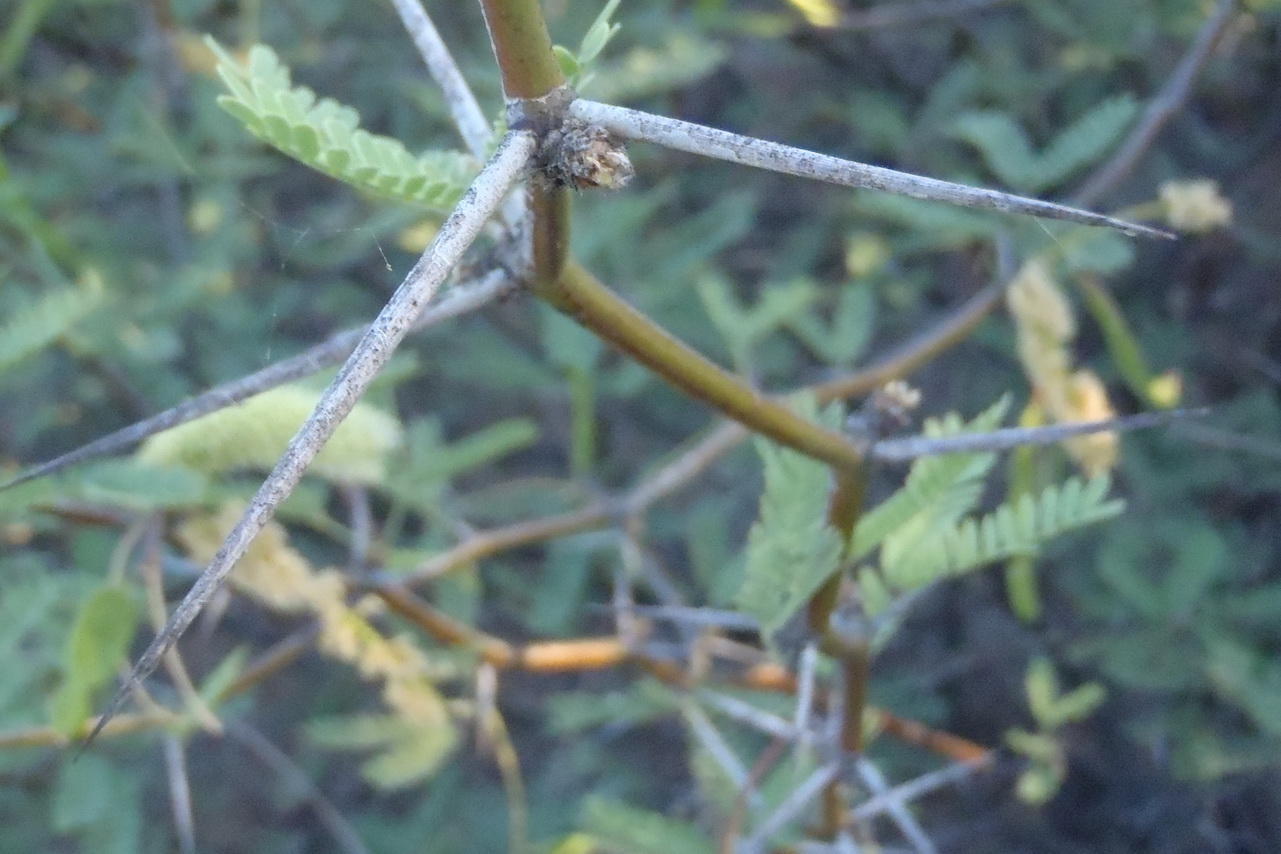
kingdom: Plantae
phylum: Tracheophyta
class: Magnoliopsida
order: Fabales
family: Fabaceae
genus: Prosopis
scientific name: Prosopis glandulosa
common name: Honey mesquite
